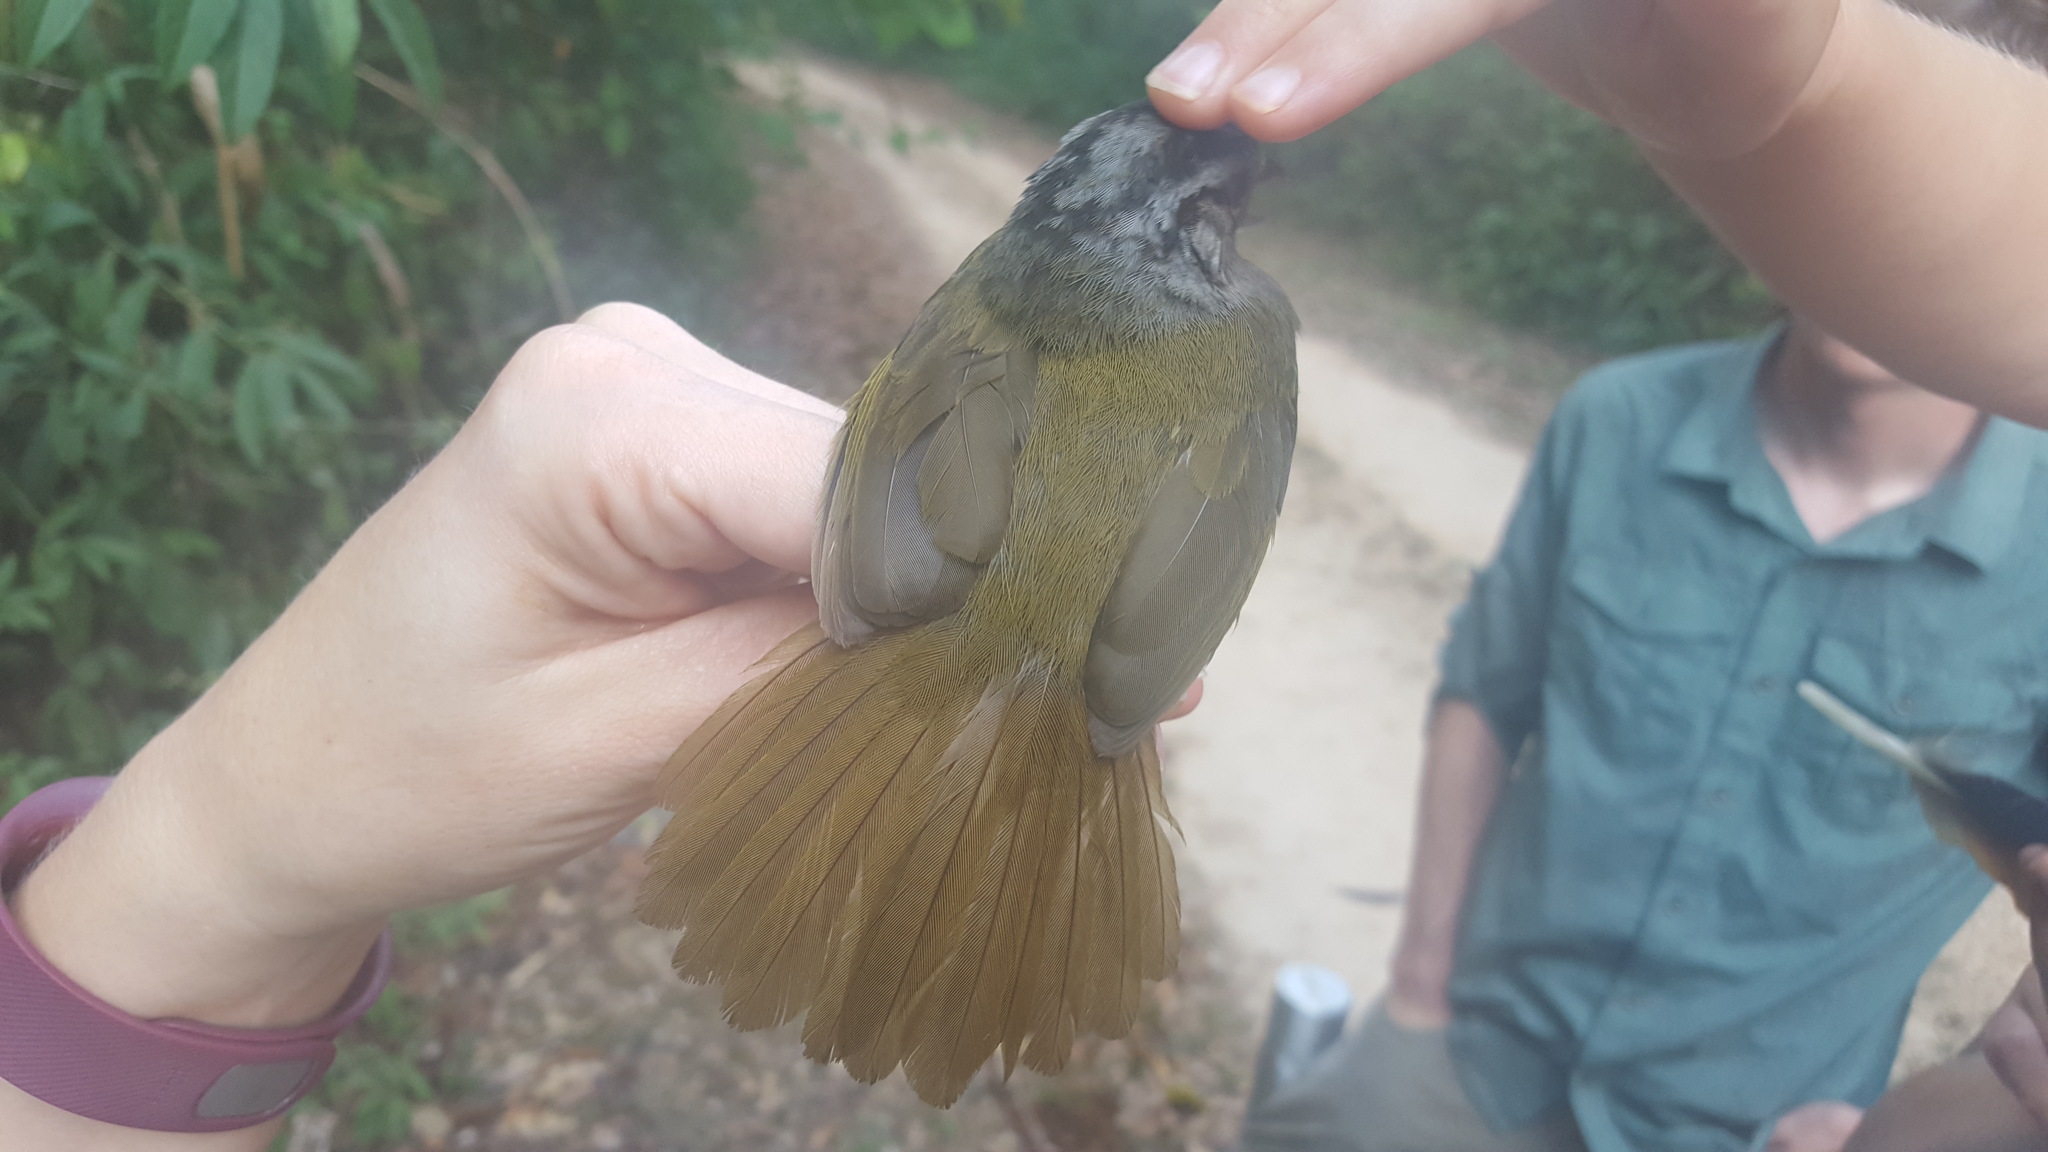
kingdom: Animalia
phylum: Chordata
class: Aves
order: Passeriformes
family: Passerellidae
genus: Arremonops
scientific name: Arremonops chloronotus
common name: Green-backed sparrow
